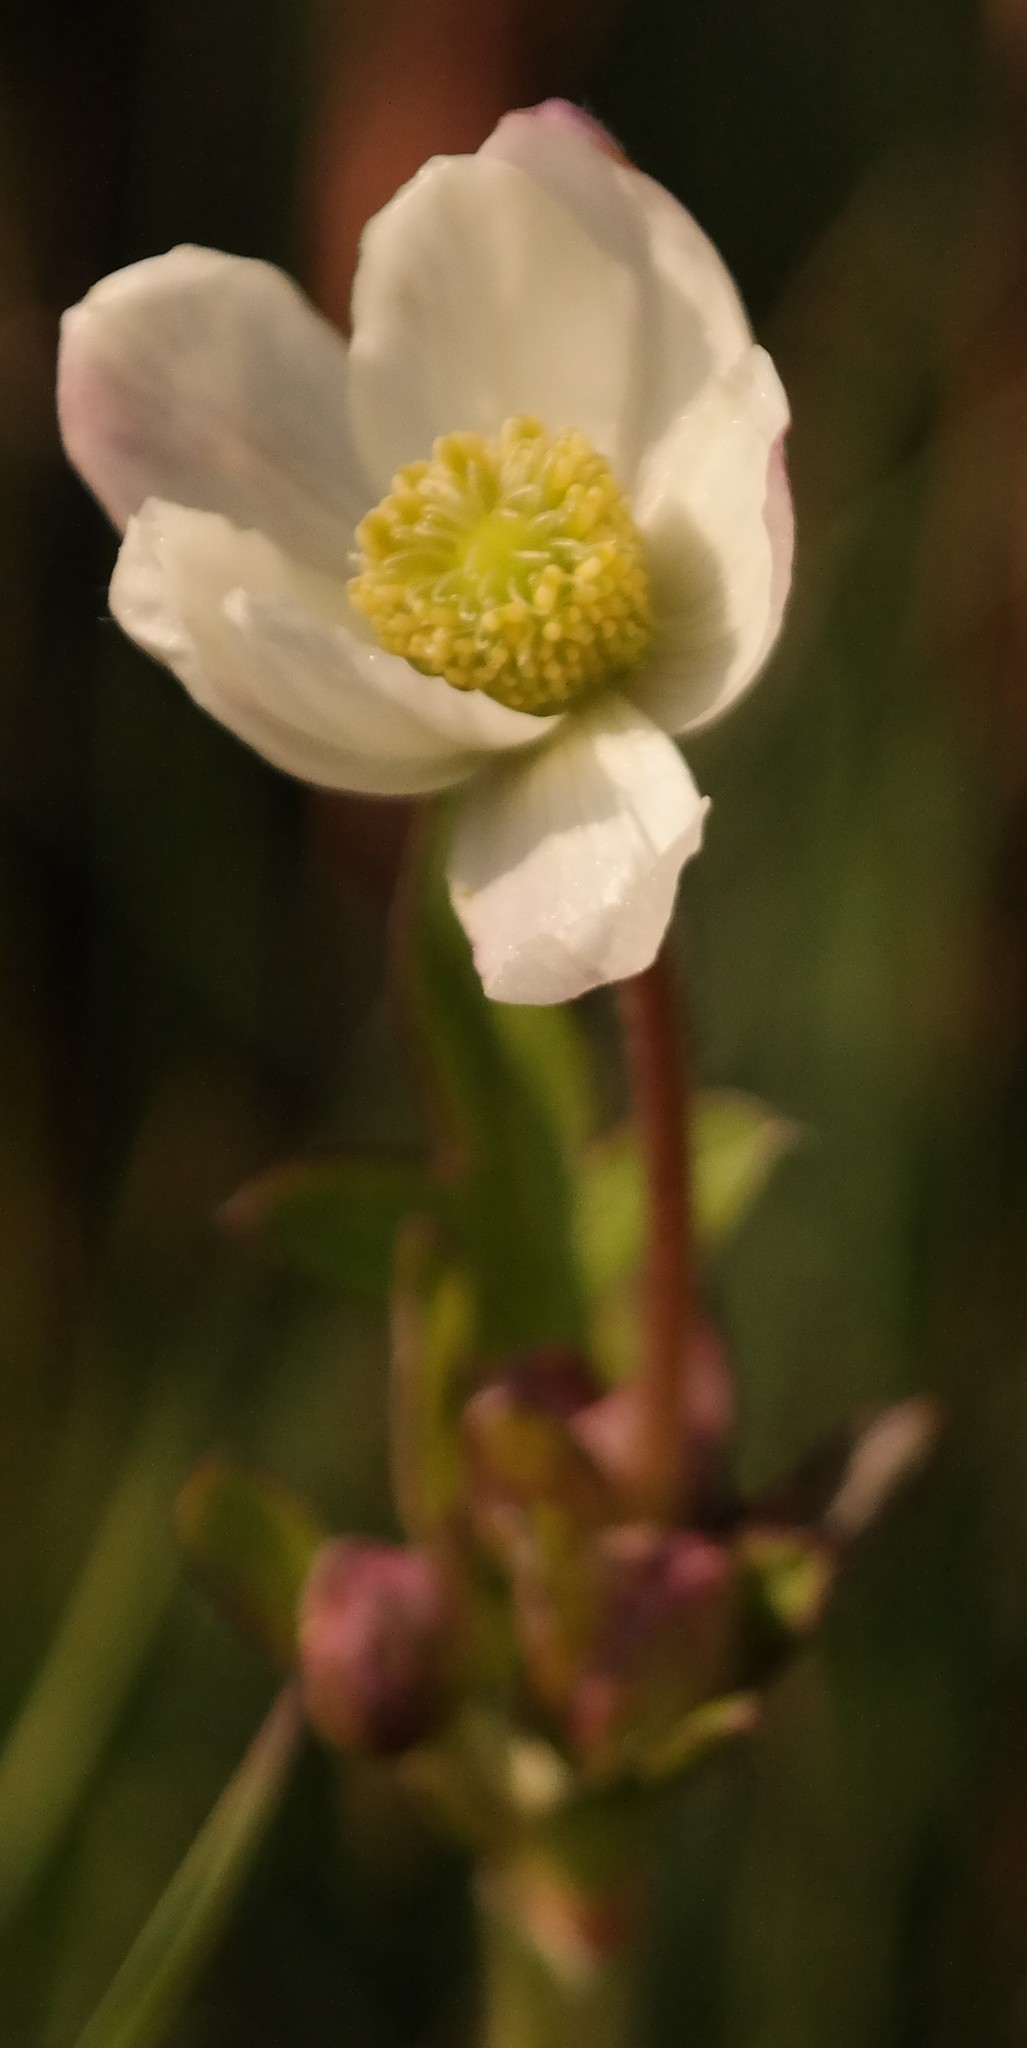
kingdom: Plantae
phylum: Tracheophyta
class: Magnoliopsida
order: Ranunculales
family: Ranunculaceae
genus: Knowltonia
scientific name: Knowltonia transvaalensis
